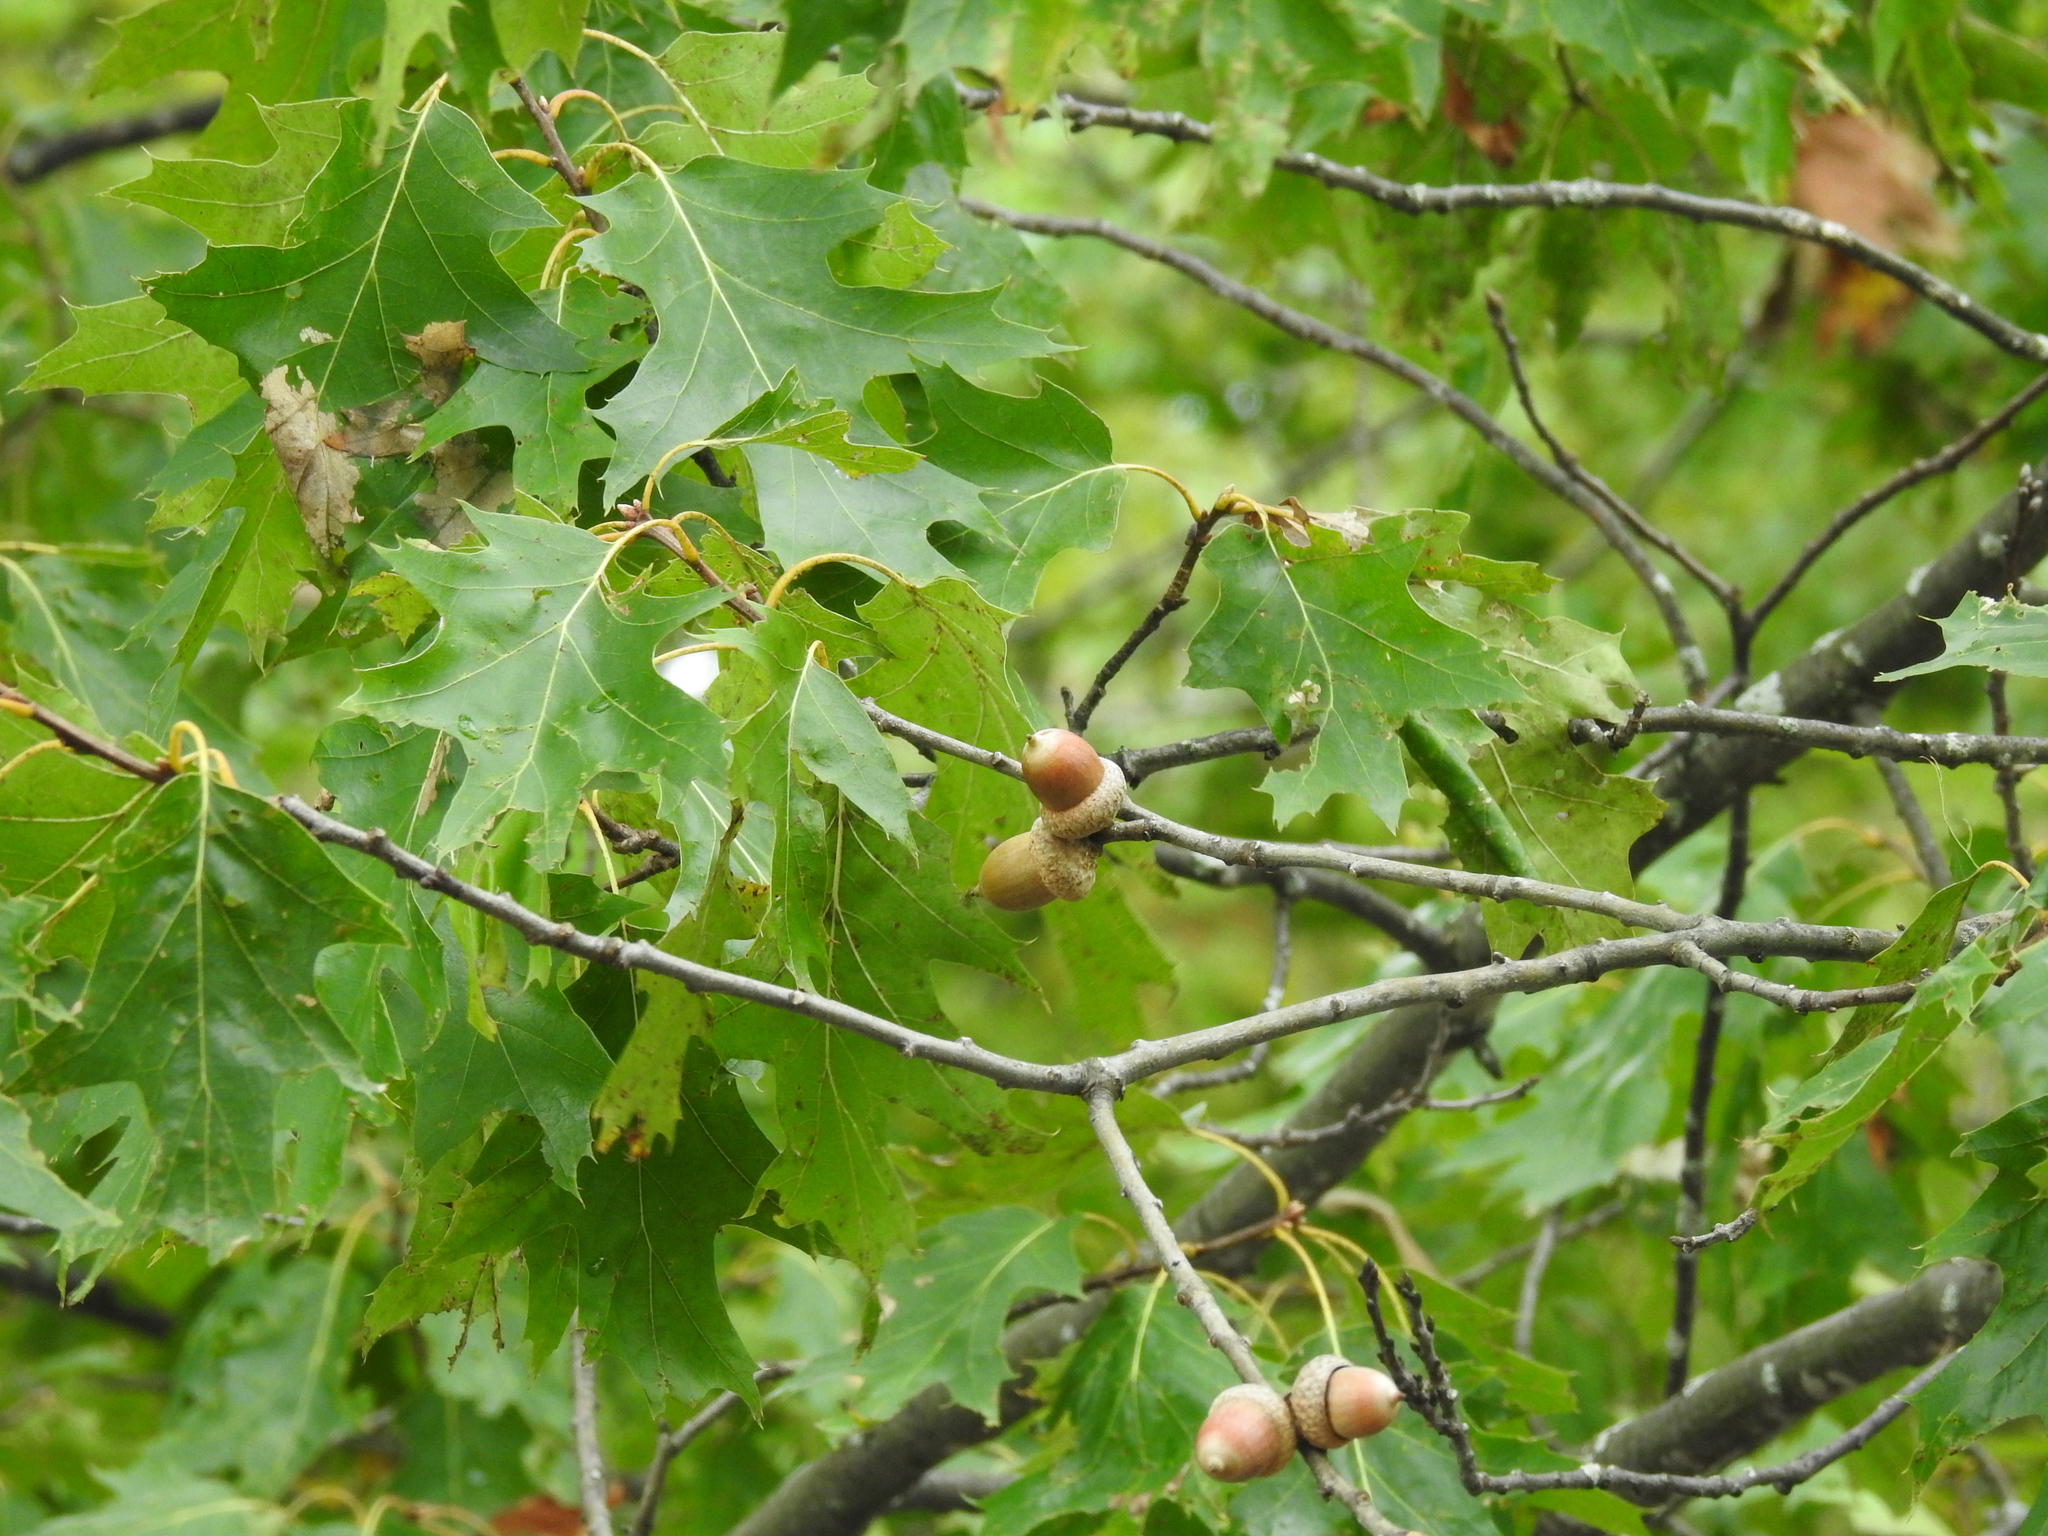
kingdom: Plantae
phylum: Tracheophyta
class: Magnoliopsida
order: Fagales
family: Fagaceae
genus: Quercus
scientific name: Quercus rubra
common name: Red oak
